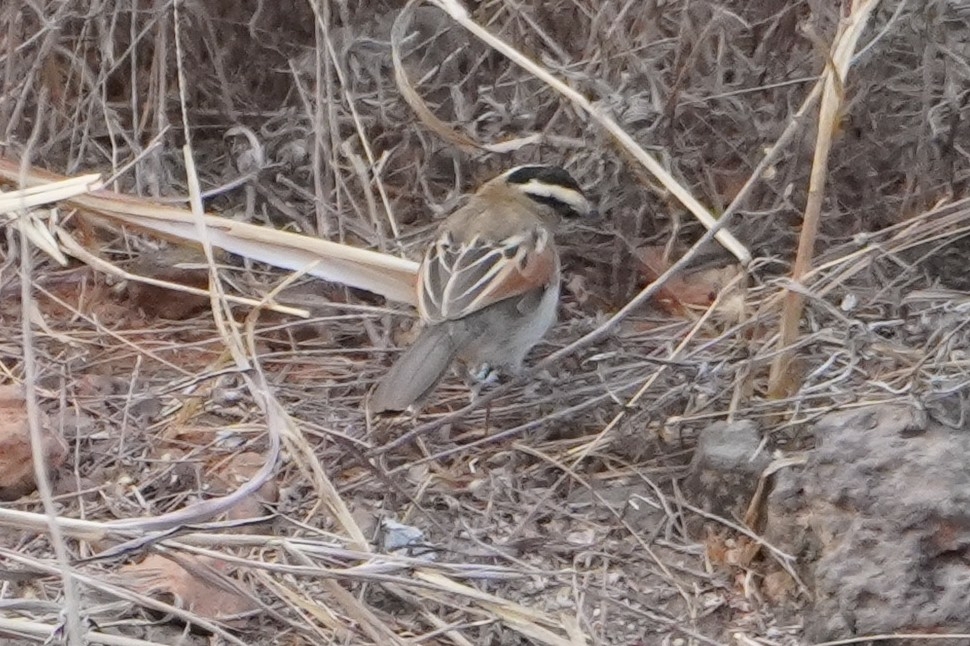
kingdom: Animalia
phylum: Chordata
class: Aves
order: Passeriformes
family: Malaconotidae
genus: Tchagra
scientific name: Tchagra senegalus
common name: Black-crowned tchagra
